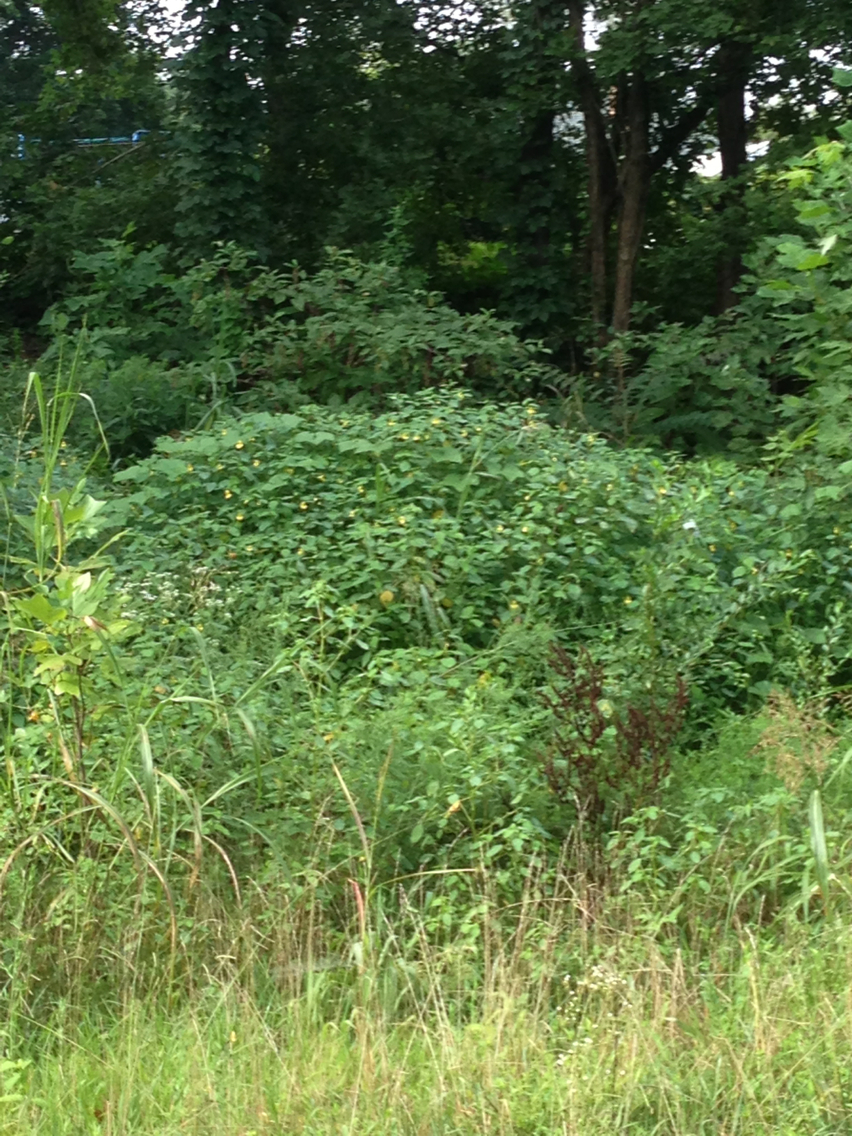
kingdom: Plantae
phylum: Tracheophyta
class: Magnoliopsida
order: Ericales
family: Balsaminaceae
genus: Impatiens
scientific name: Impatiens pallida
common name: Pale snapweed
